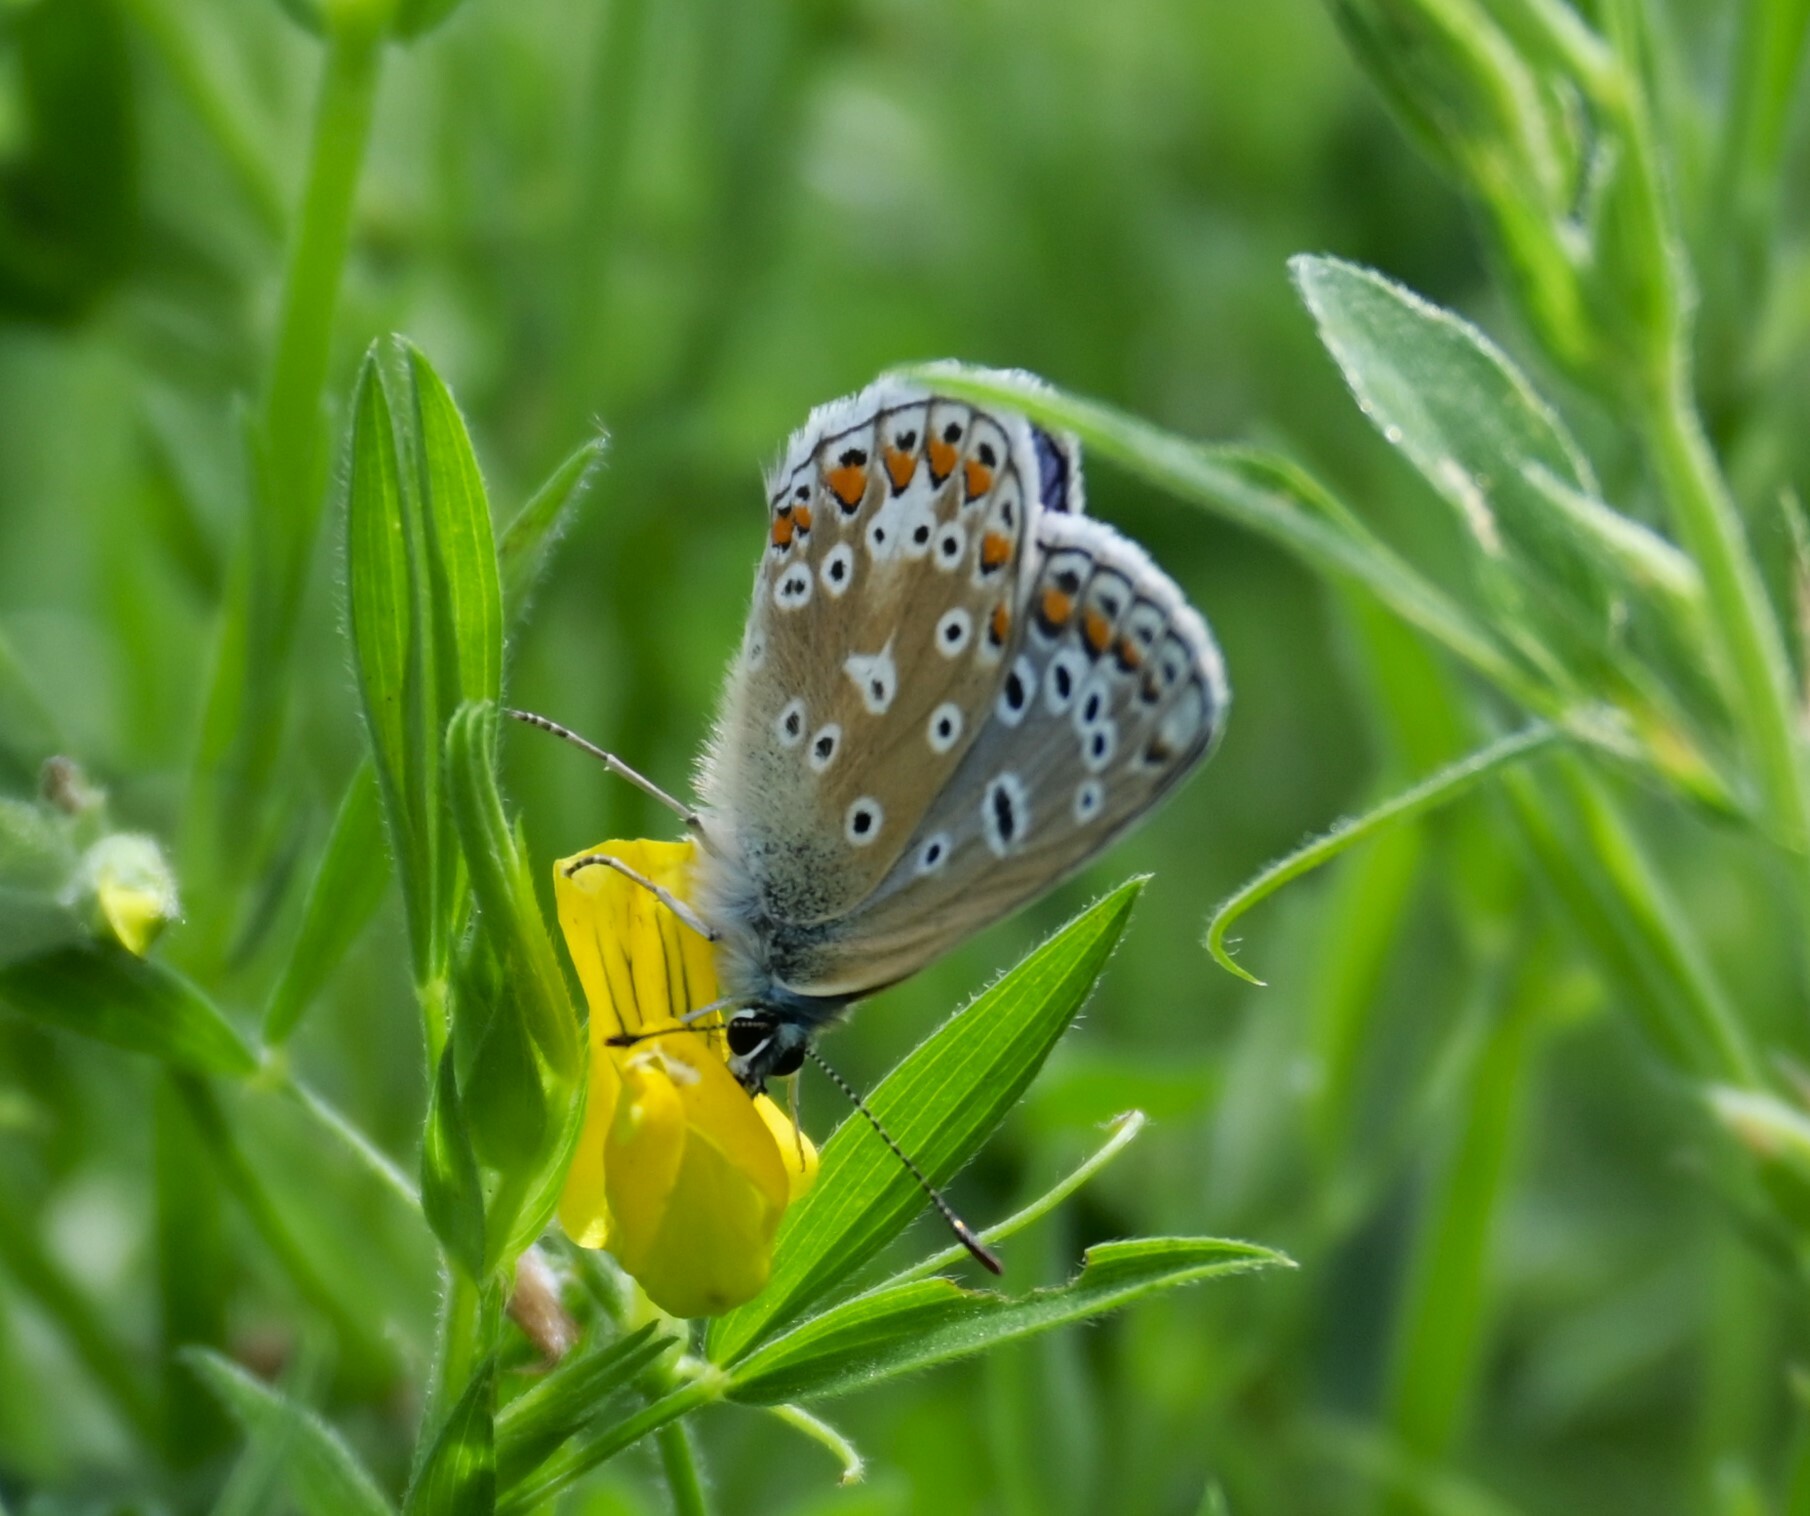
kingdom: Animalia
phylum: Arthropoda
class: Insecta
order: Lepidoptera
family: Lycaenidae
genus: Polyommatus
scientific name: Polyommatus icarus
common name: Common blue
